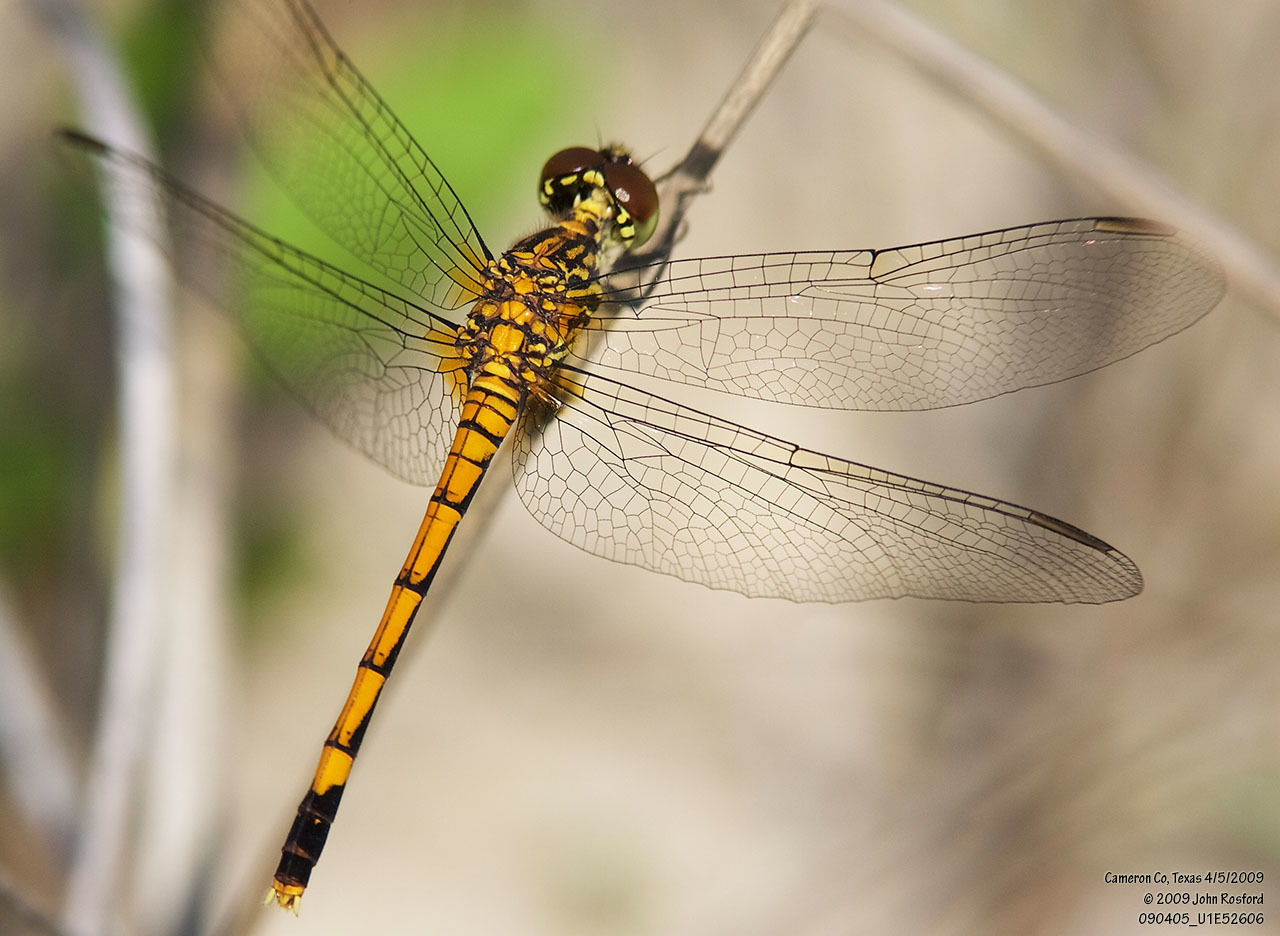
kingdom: Animalia
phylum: Arthropoda
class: Insecta
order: Odonata
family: Libellulidae
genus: Erythrodiplax
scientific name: Erythrodiplax berenice
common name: Seaside dragonlet
